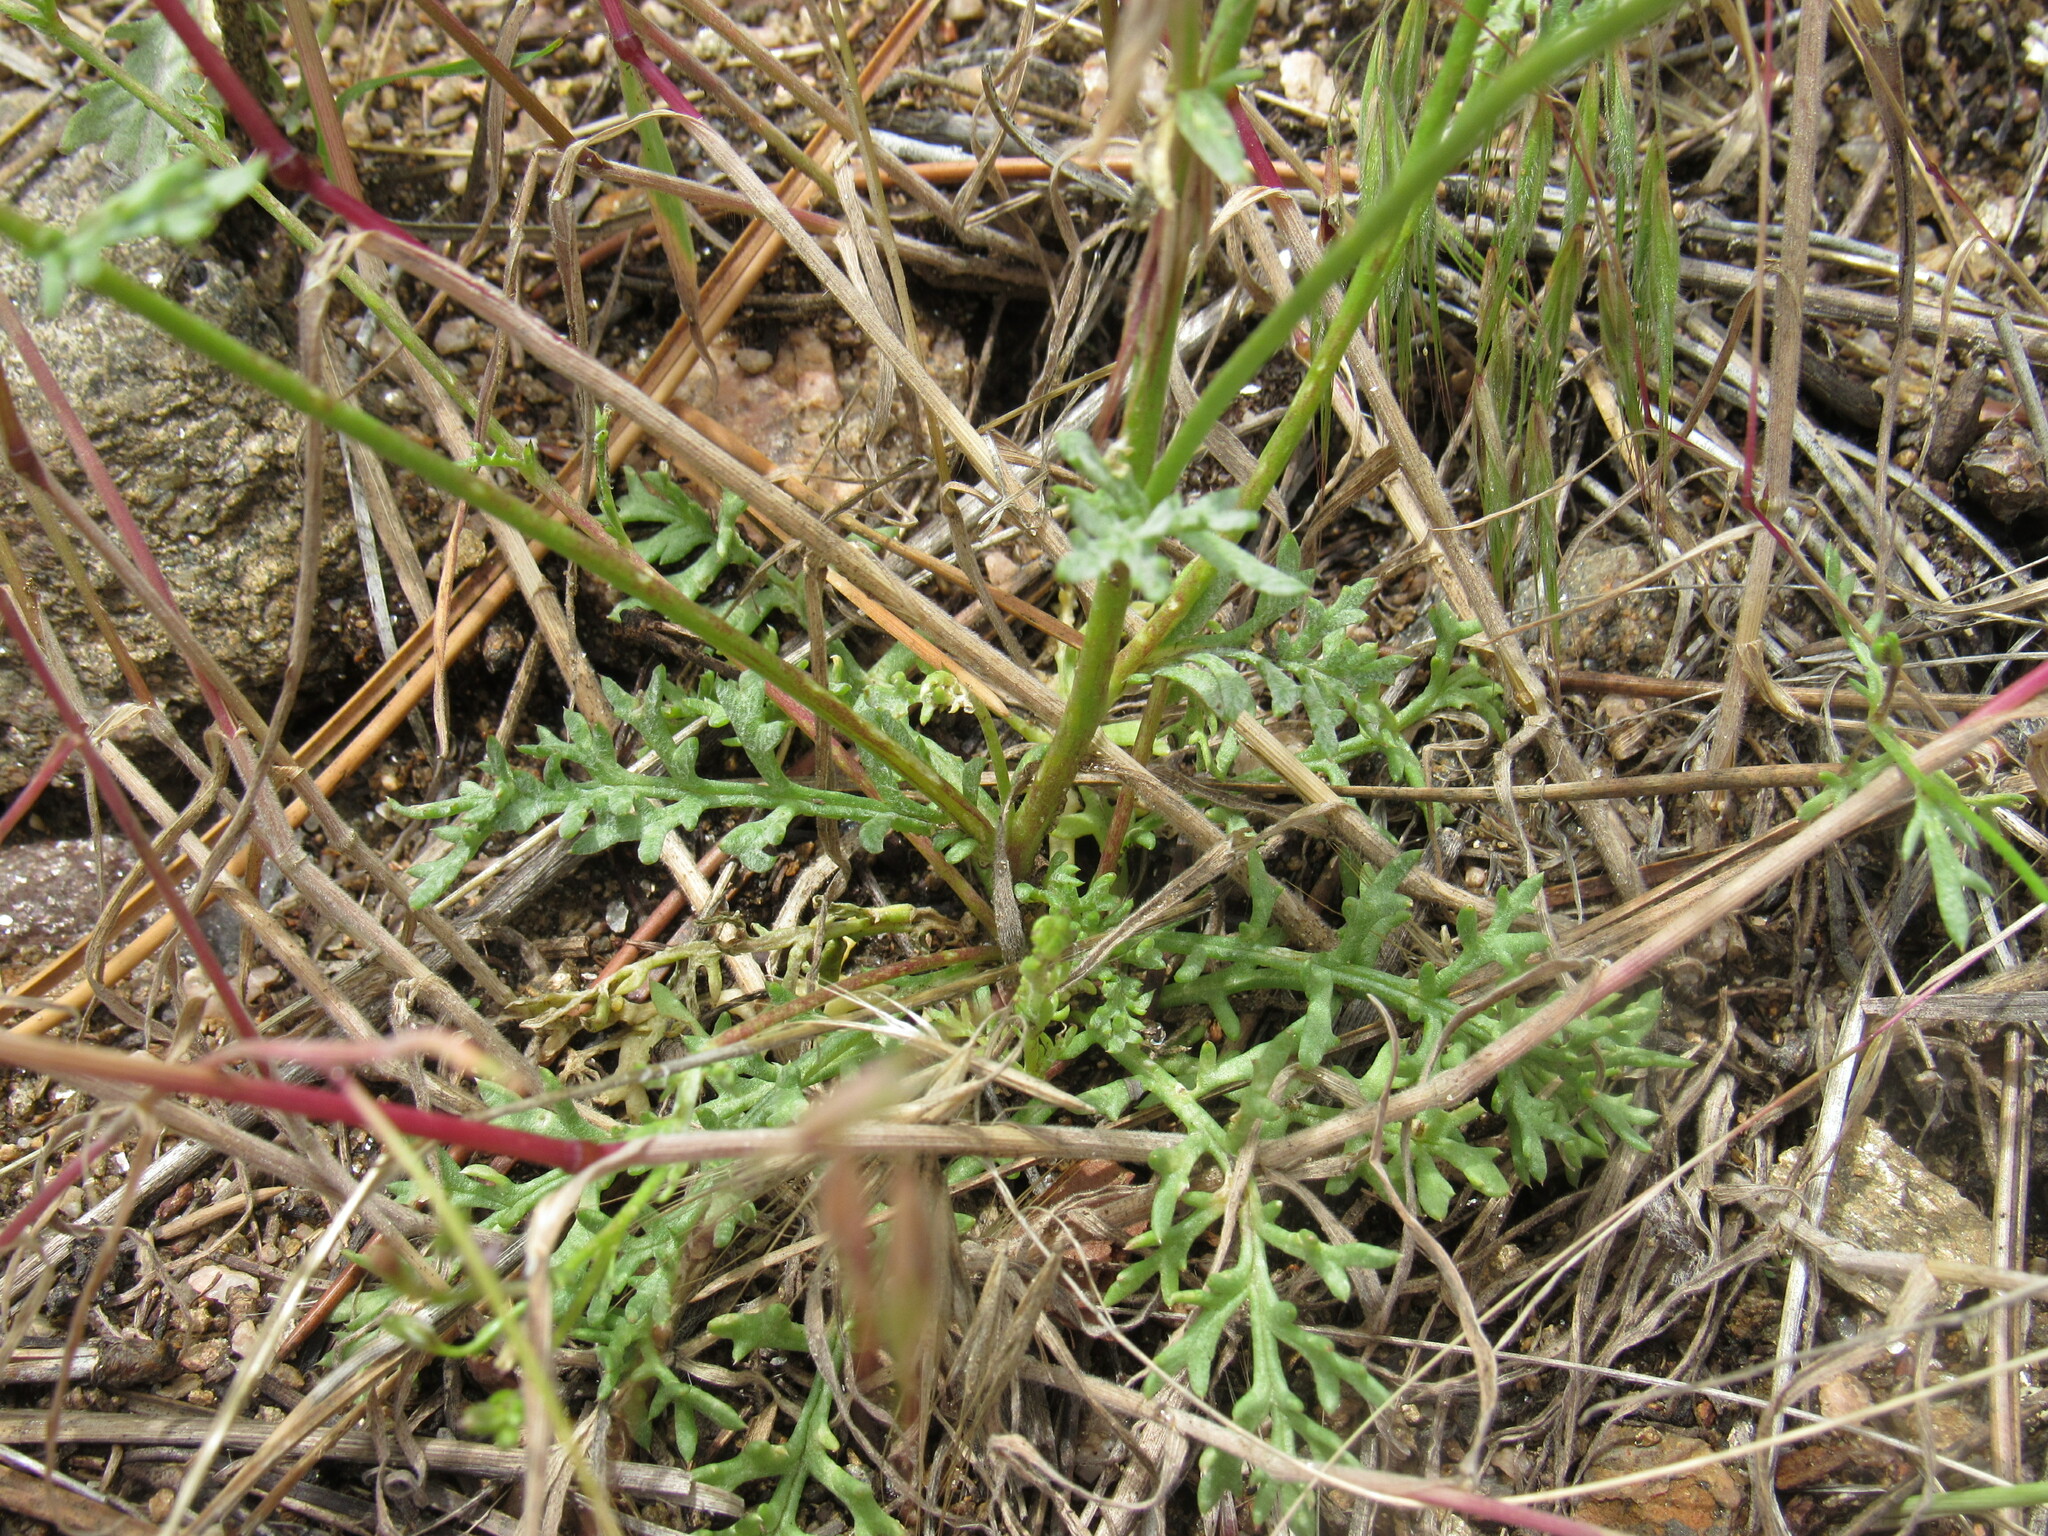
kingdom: Plantae
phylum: Tracheophyta
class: Magnoliopsida
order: Ericales
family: Polemoniaceae
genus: Gilia
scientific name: Gilia clokeyi
